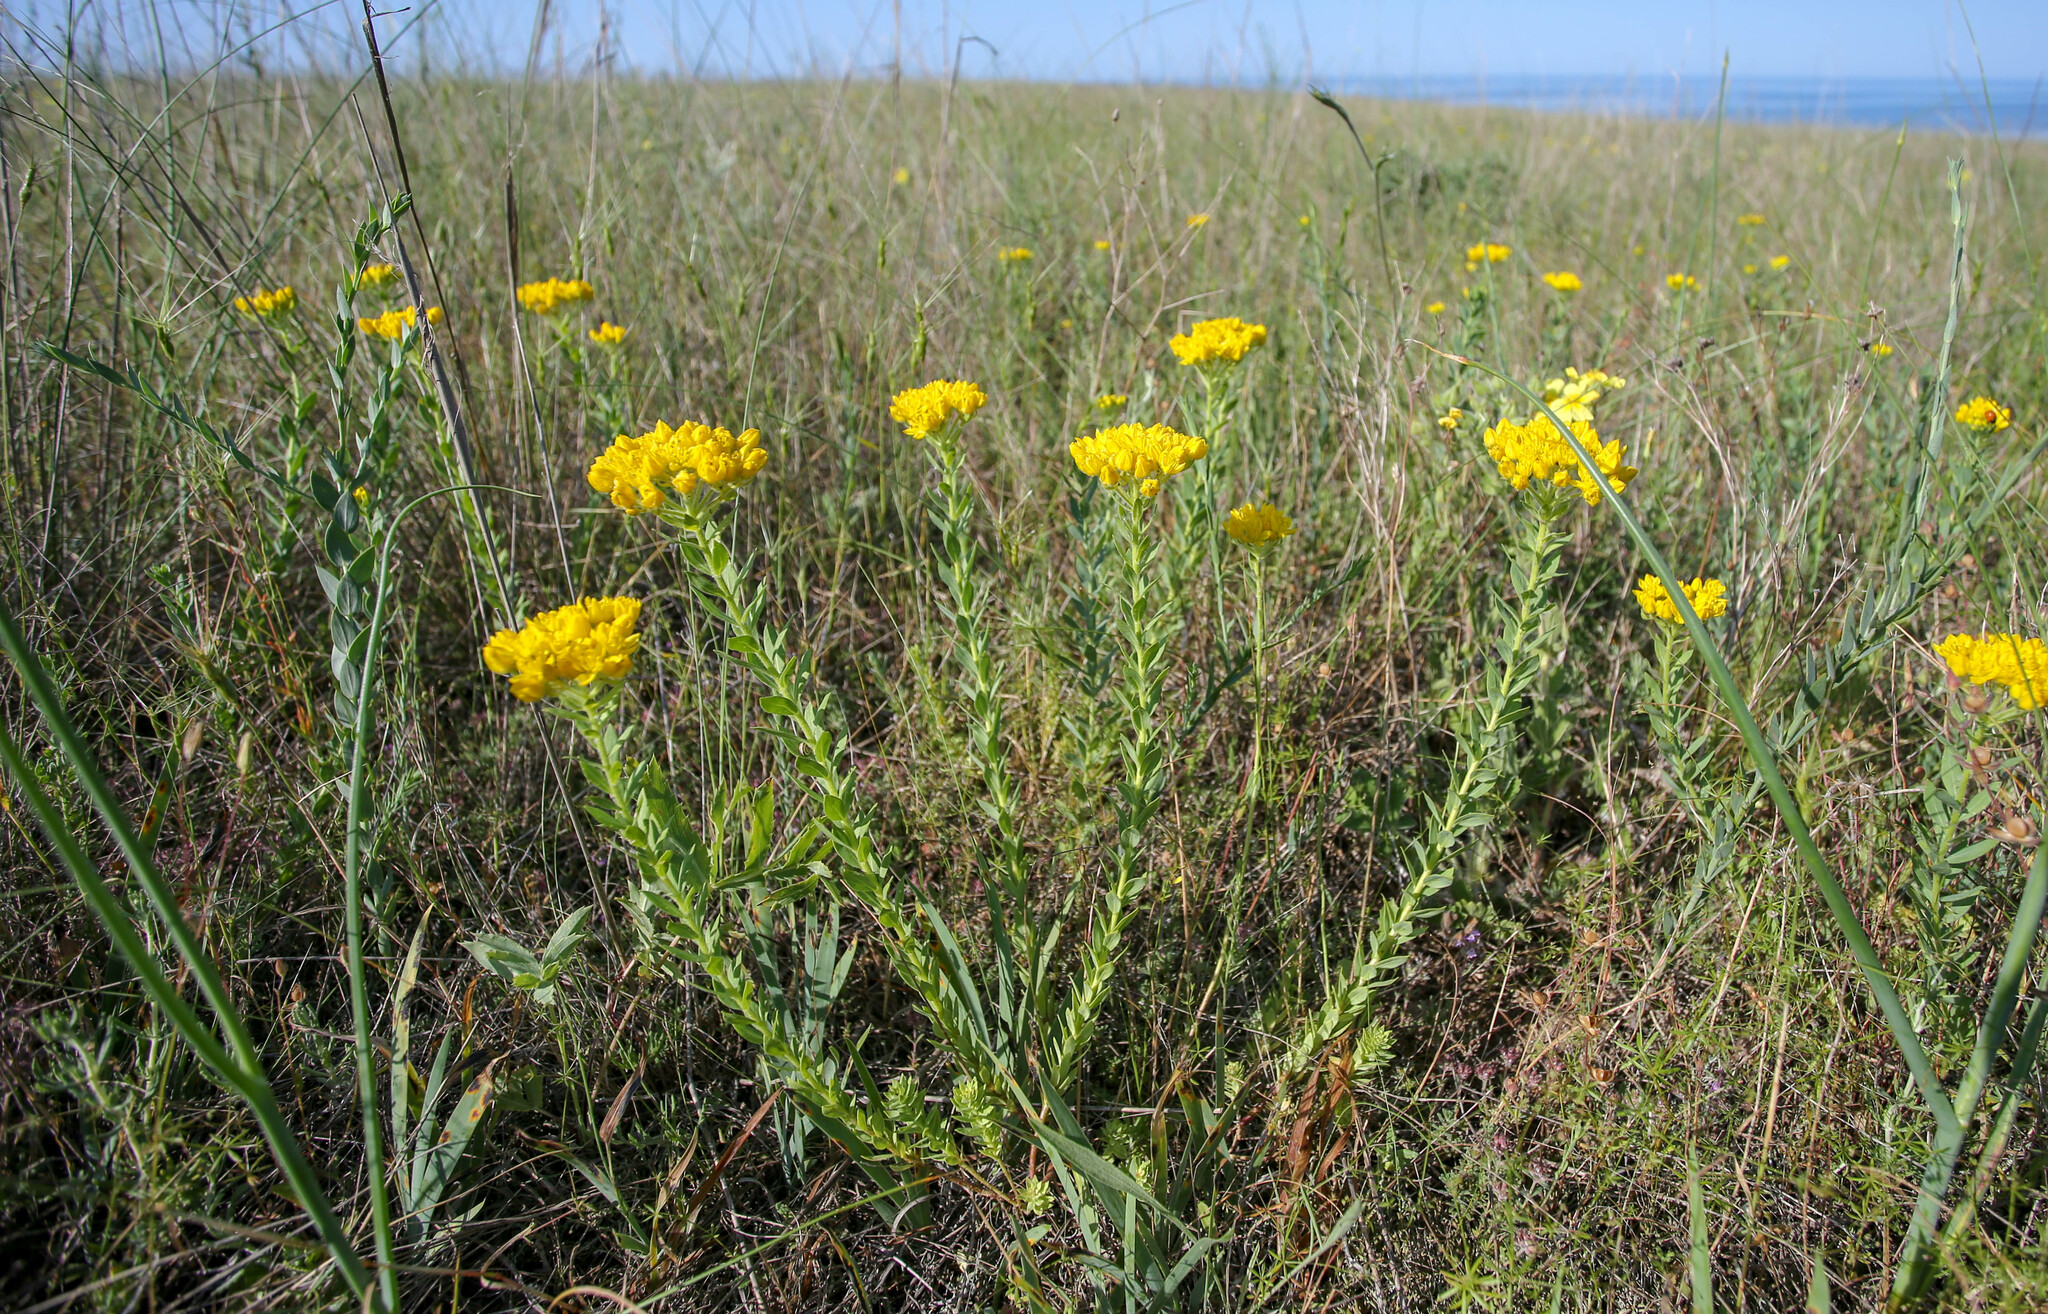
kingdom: Plantae
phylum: Tracheophyta
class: Magnoliopsida
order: Sapindales
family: Rutaceae
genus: Haplophyllum
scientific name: Haplophyllum suaveolens
